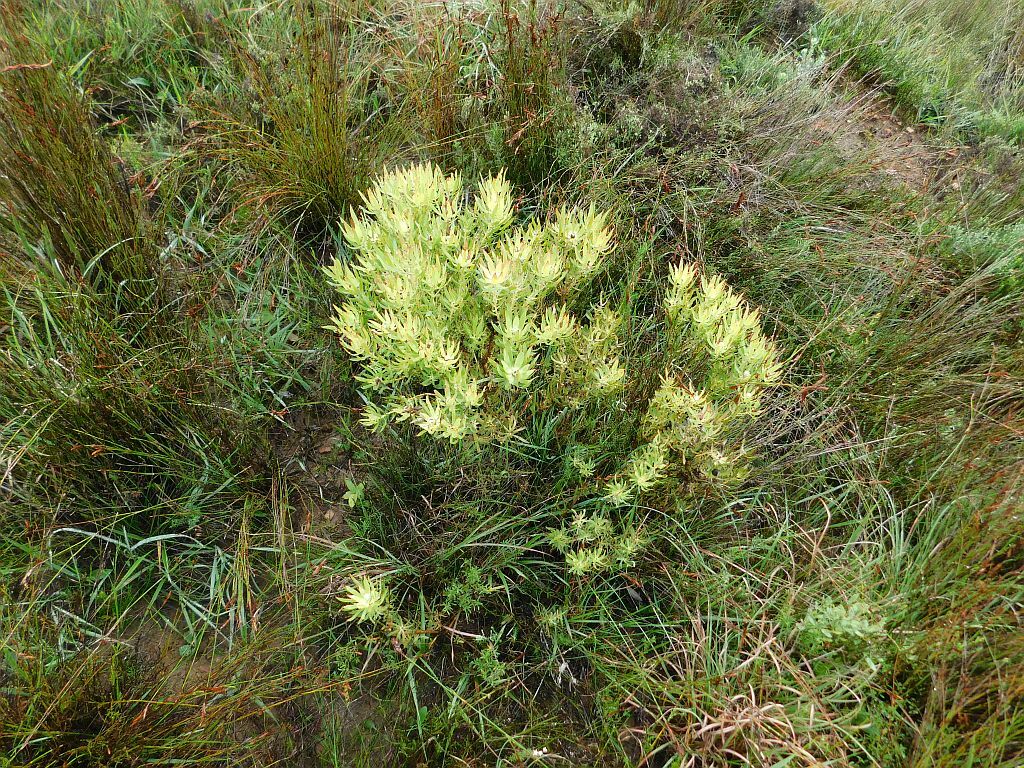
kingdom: Plantae
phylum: Tracheophyta
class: Magnoliopsida
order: Proteales
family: Proteaceae
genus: Leucadendron
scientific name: Leucadendron salignum
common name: Common sunshine conebush
